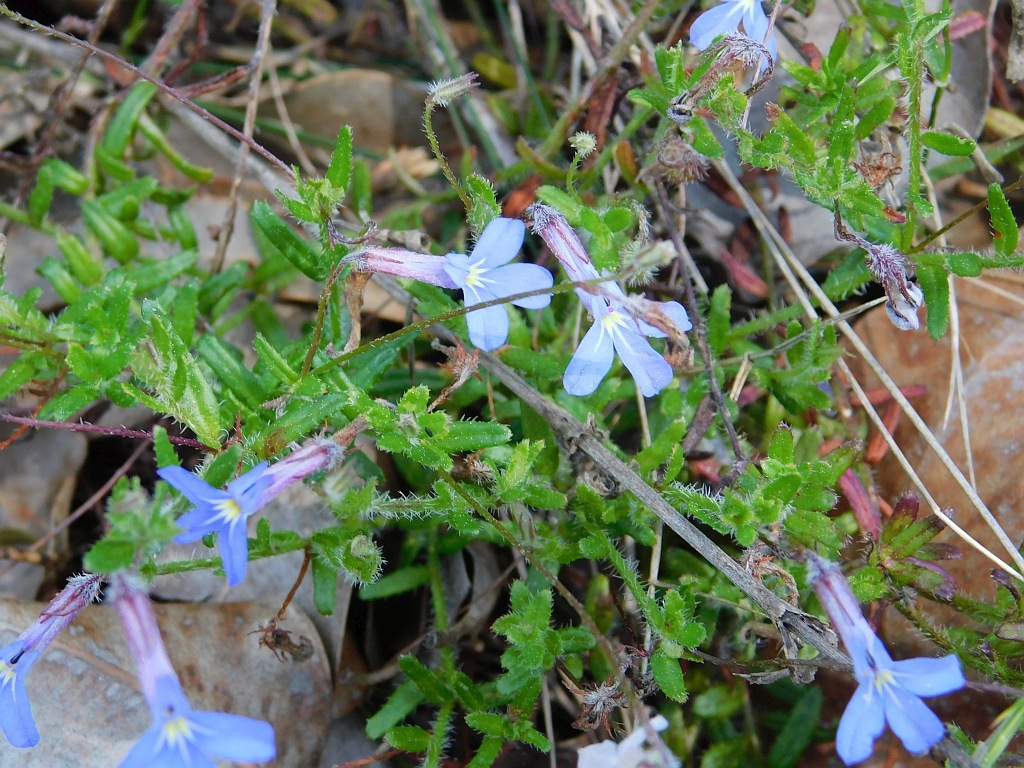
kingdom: Plantae
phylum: Tracheophyta
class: Magnoliopsida
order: Asterales
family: Campanulaceae
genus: Lobelia
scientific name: Lobelia neglecta
